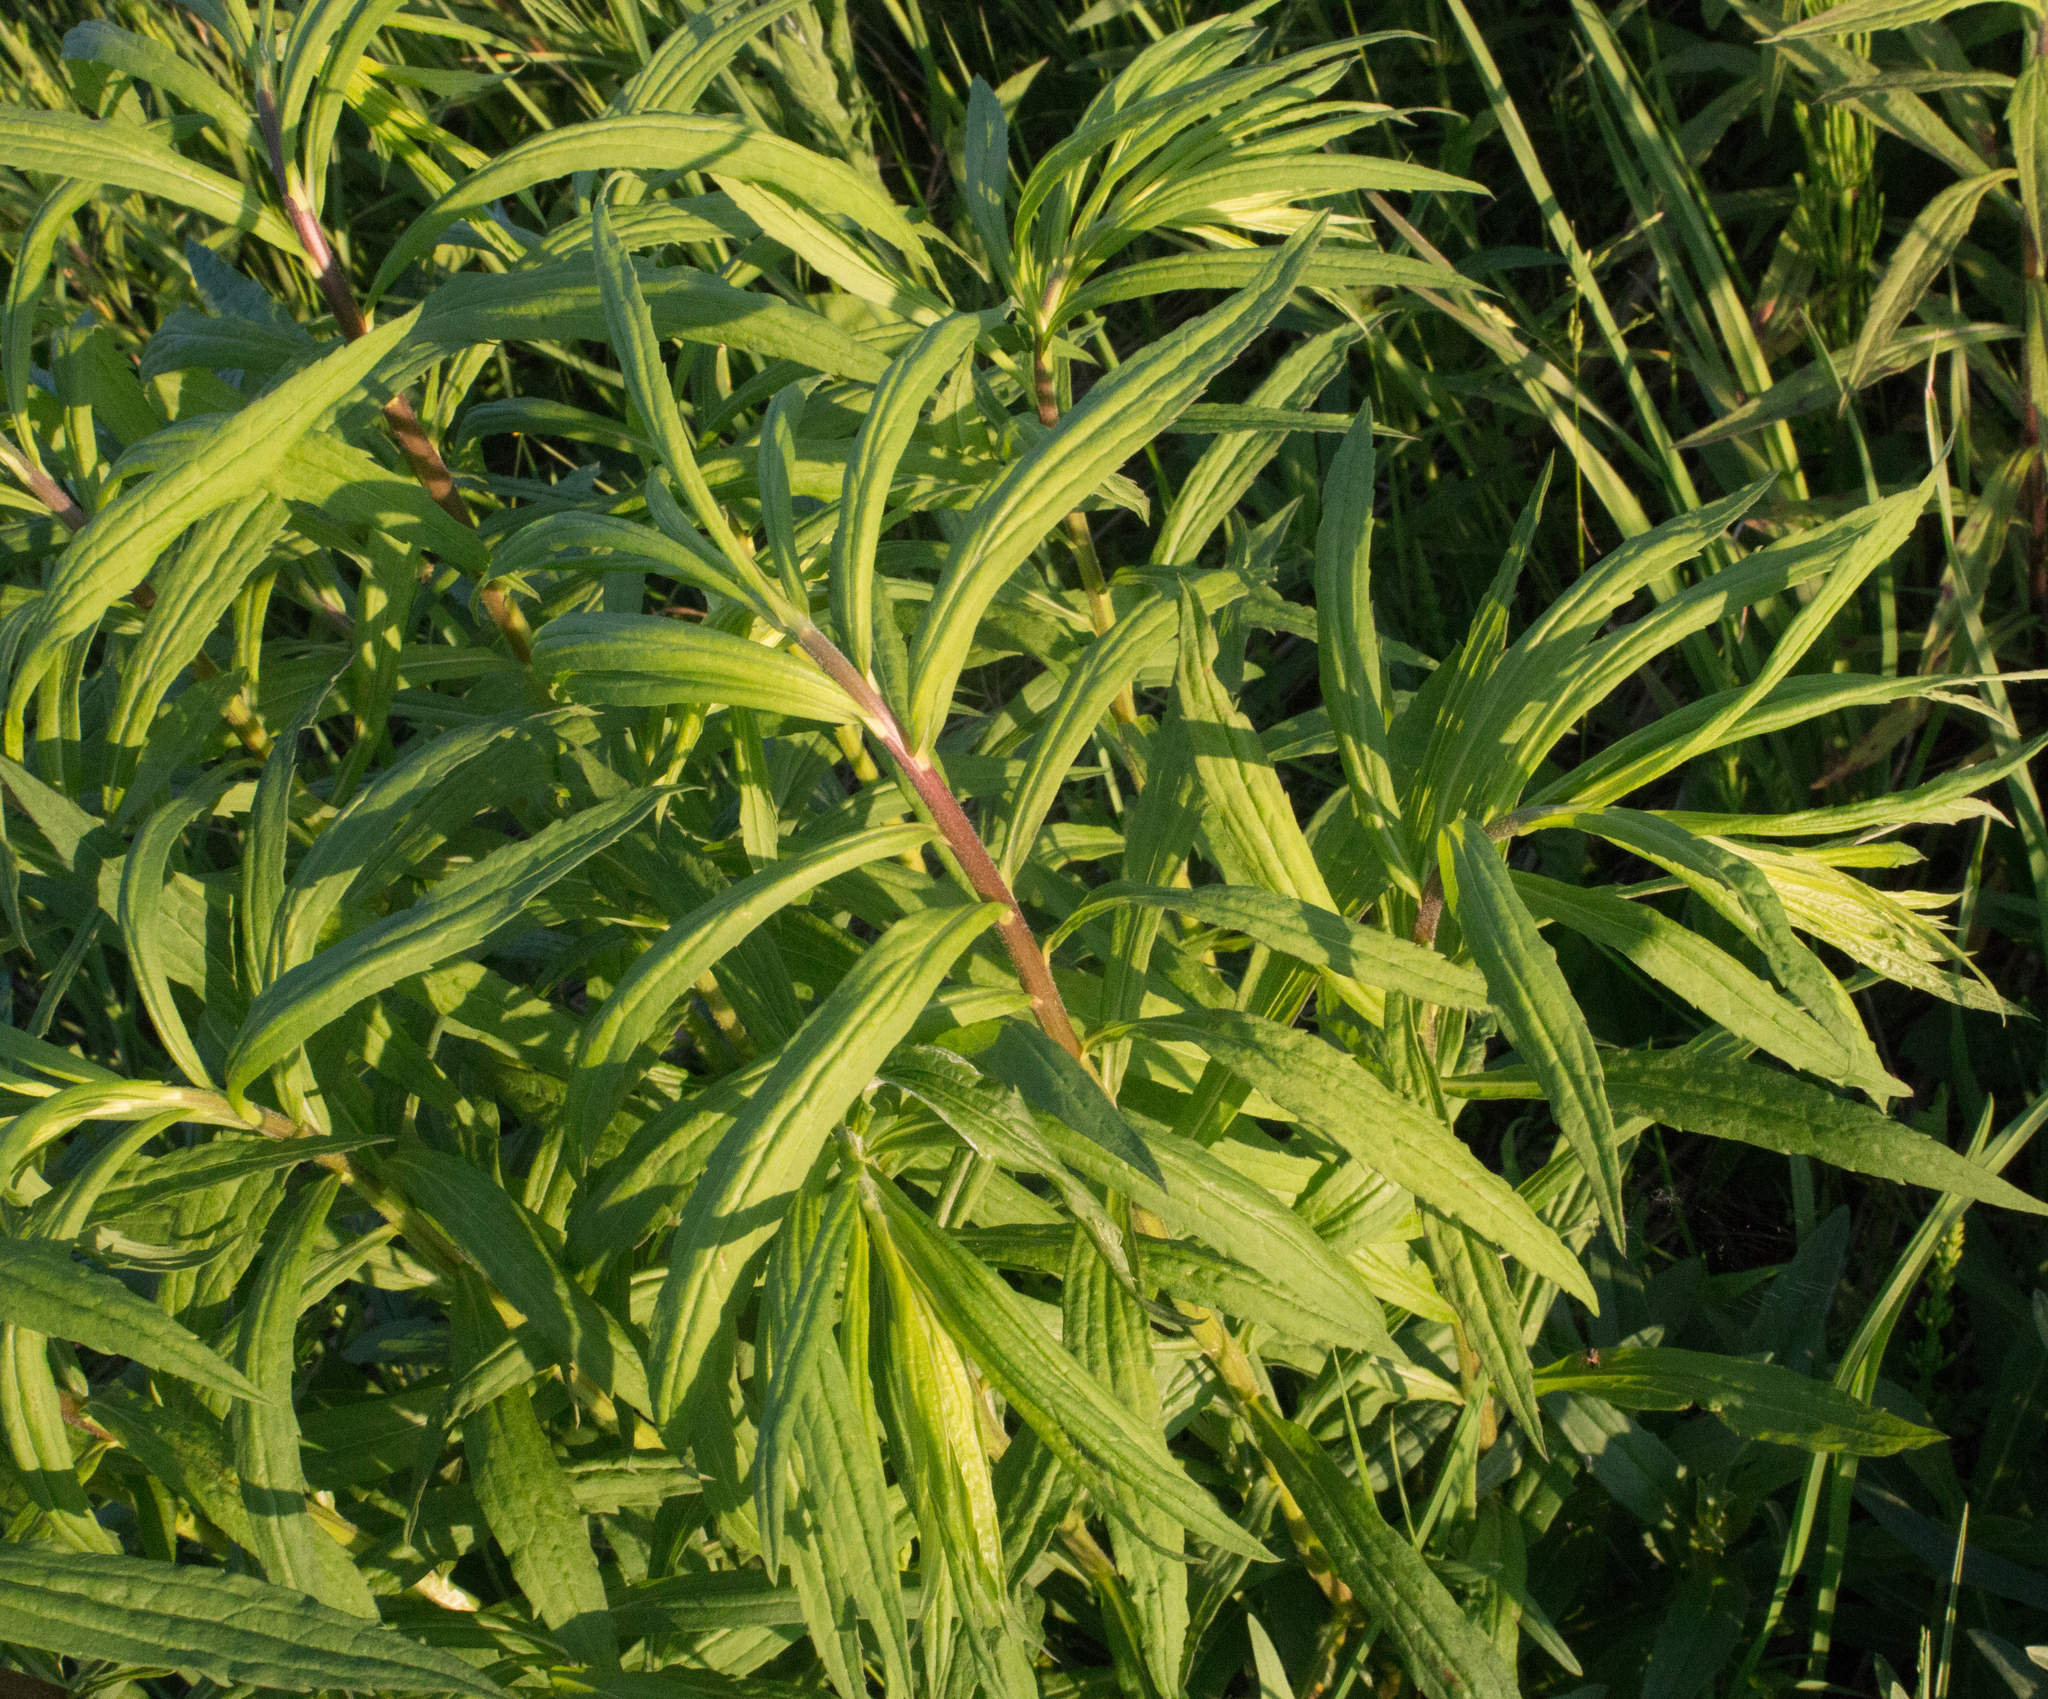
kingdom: Plantae
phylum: Tracheophyta
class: Magnoliopsida
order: Asterales
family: Asteraceae
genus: Solidago
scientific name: Solidago canadensis
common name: Canada goldenrod
